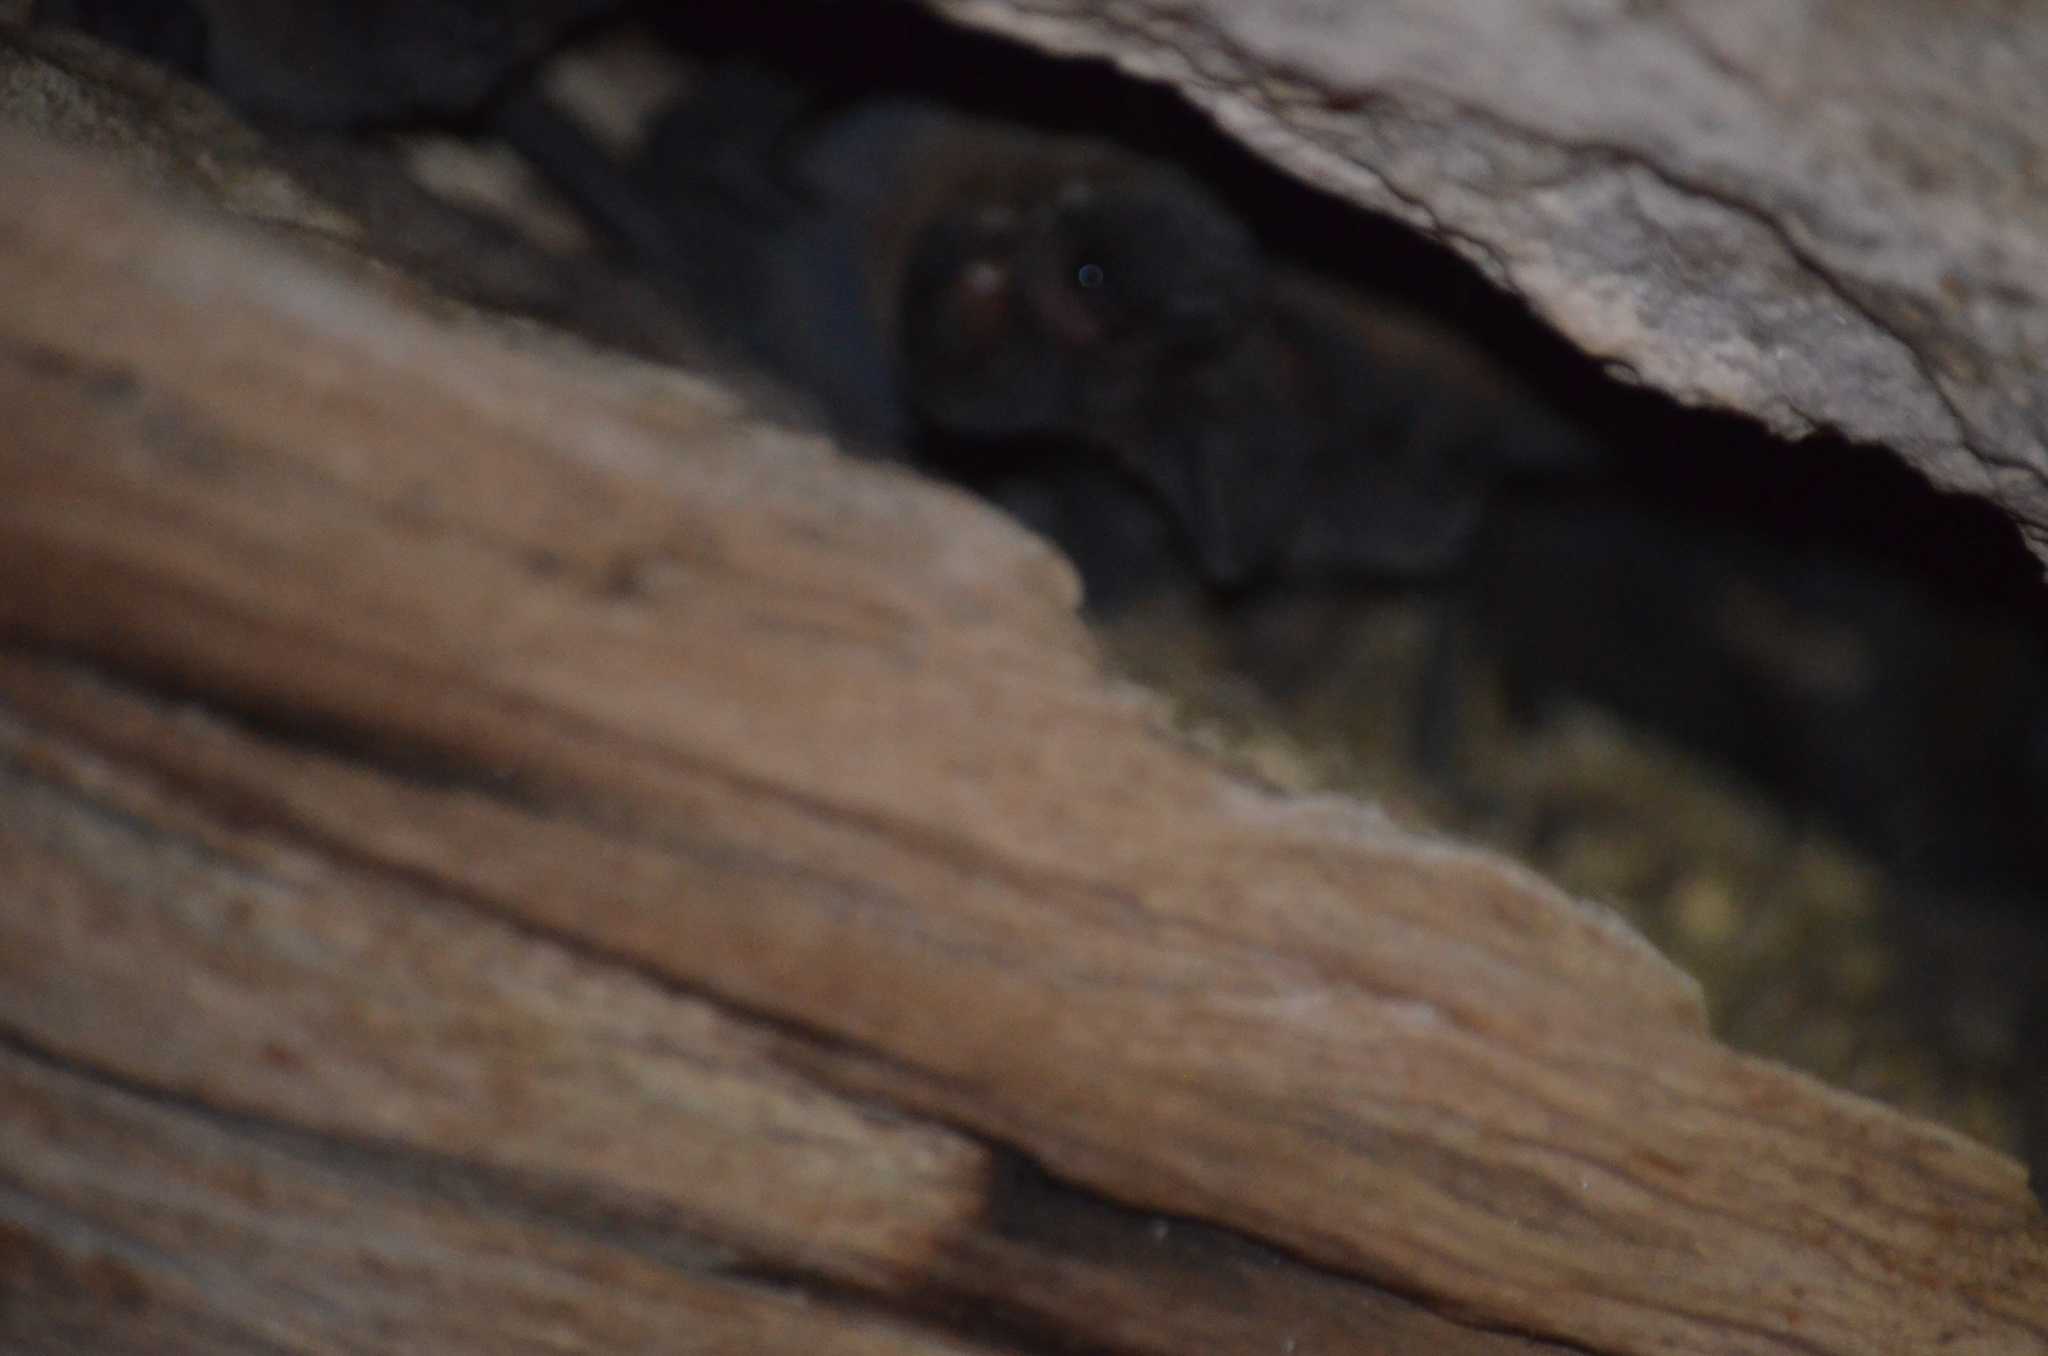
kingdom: Animalia
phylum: Chordata
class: Mammalia
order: Chiroptera
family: Molossidae
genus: Nyctinomops
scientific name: Nyctinomops laticaudatus
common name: Broad-eared free-tailed bat
